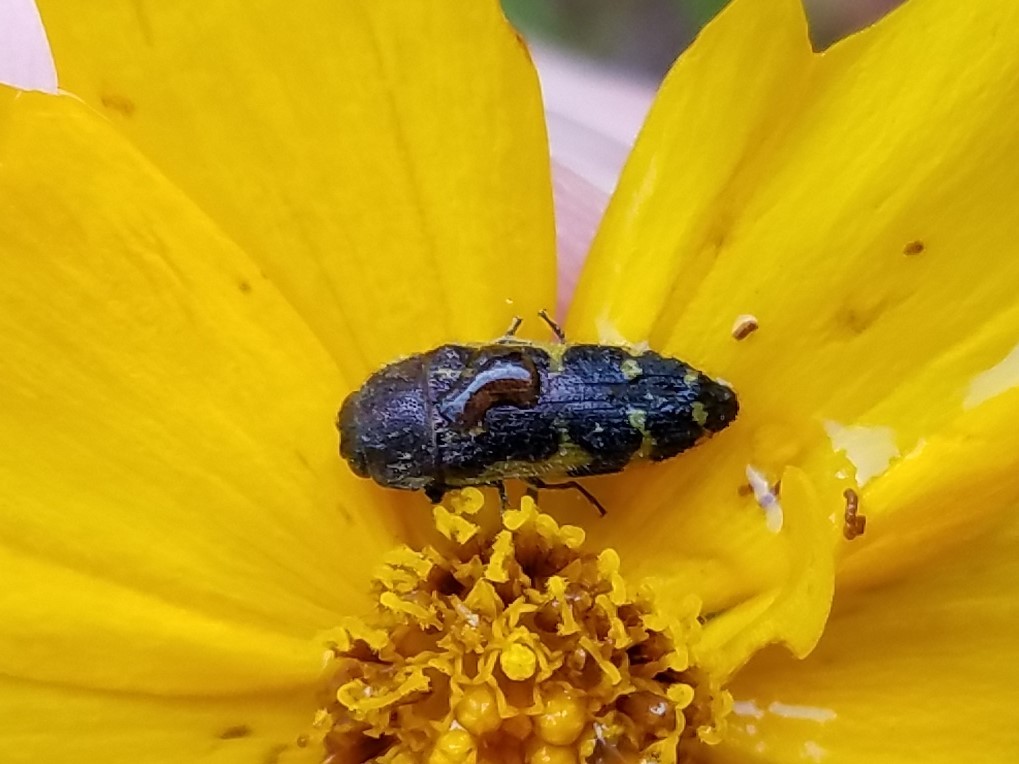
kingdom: Animalia
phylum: Arthropoda
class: Insecta
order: Coleoptera
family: Buprestidae
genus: Acmaeodera
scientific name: Acmaeodera pulchella
